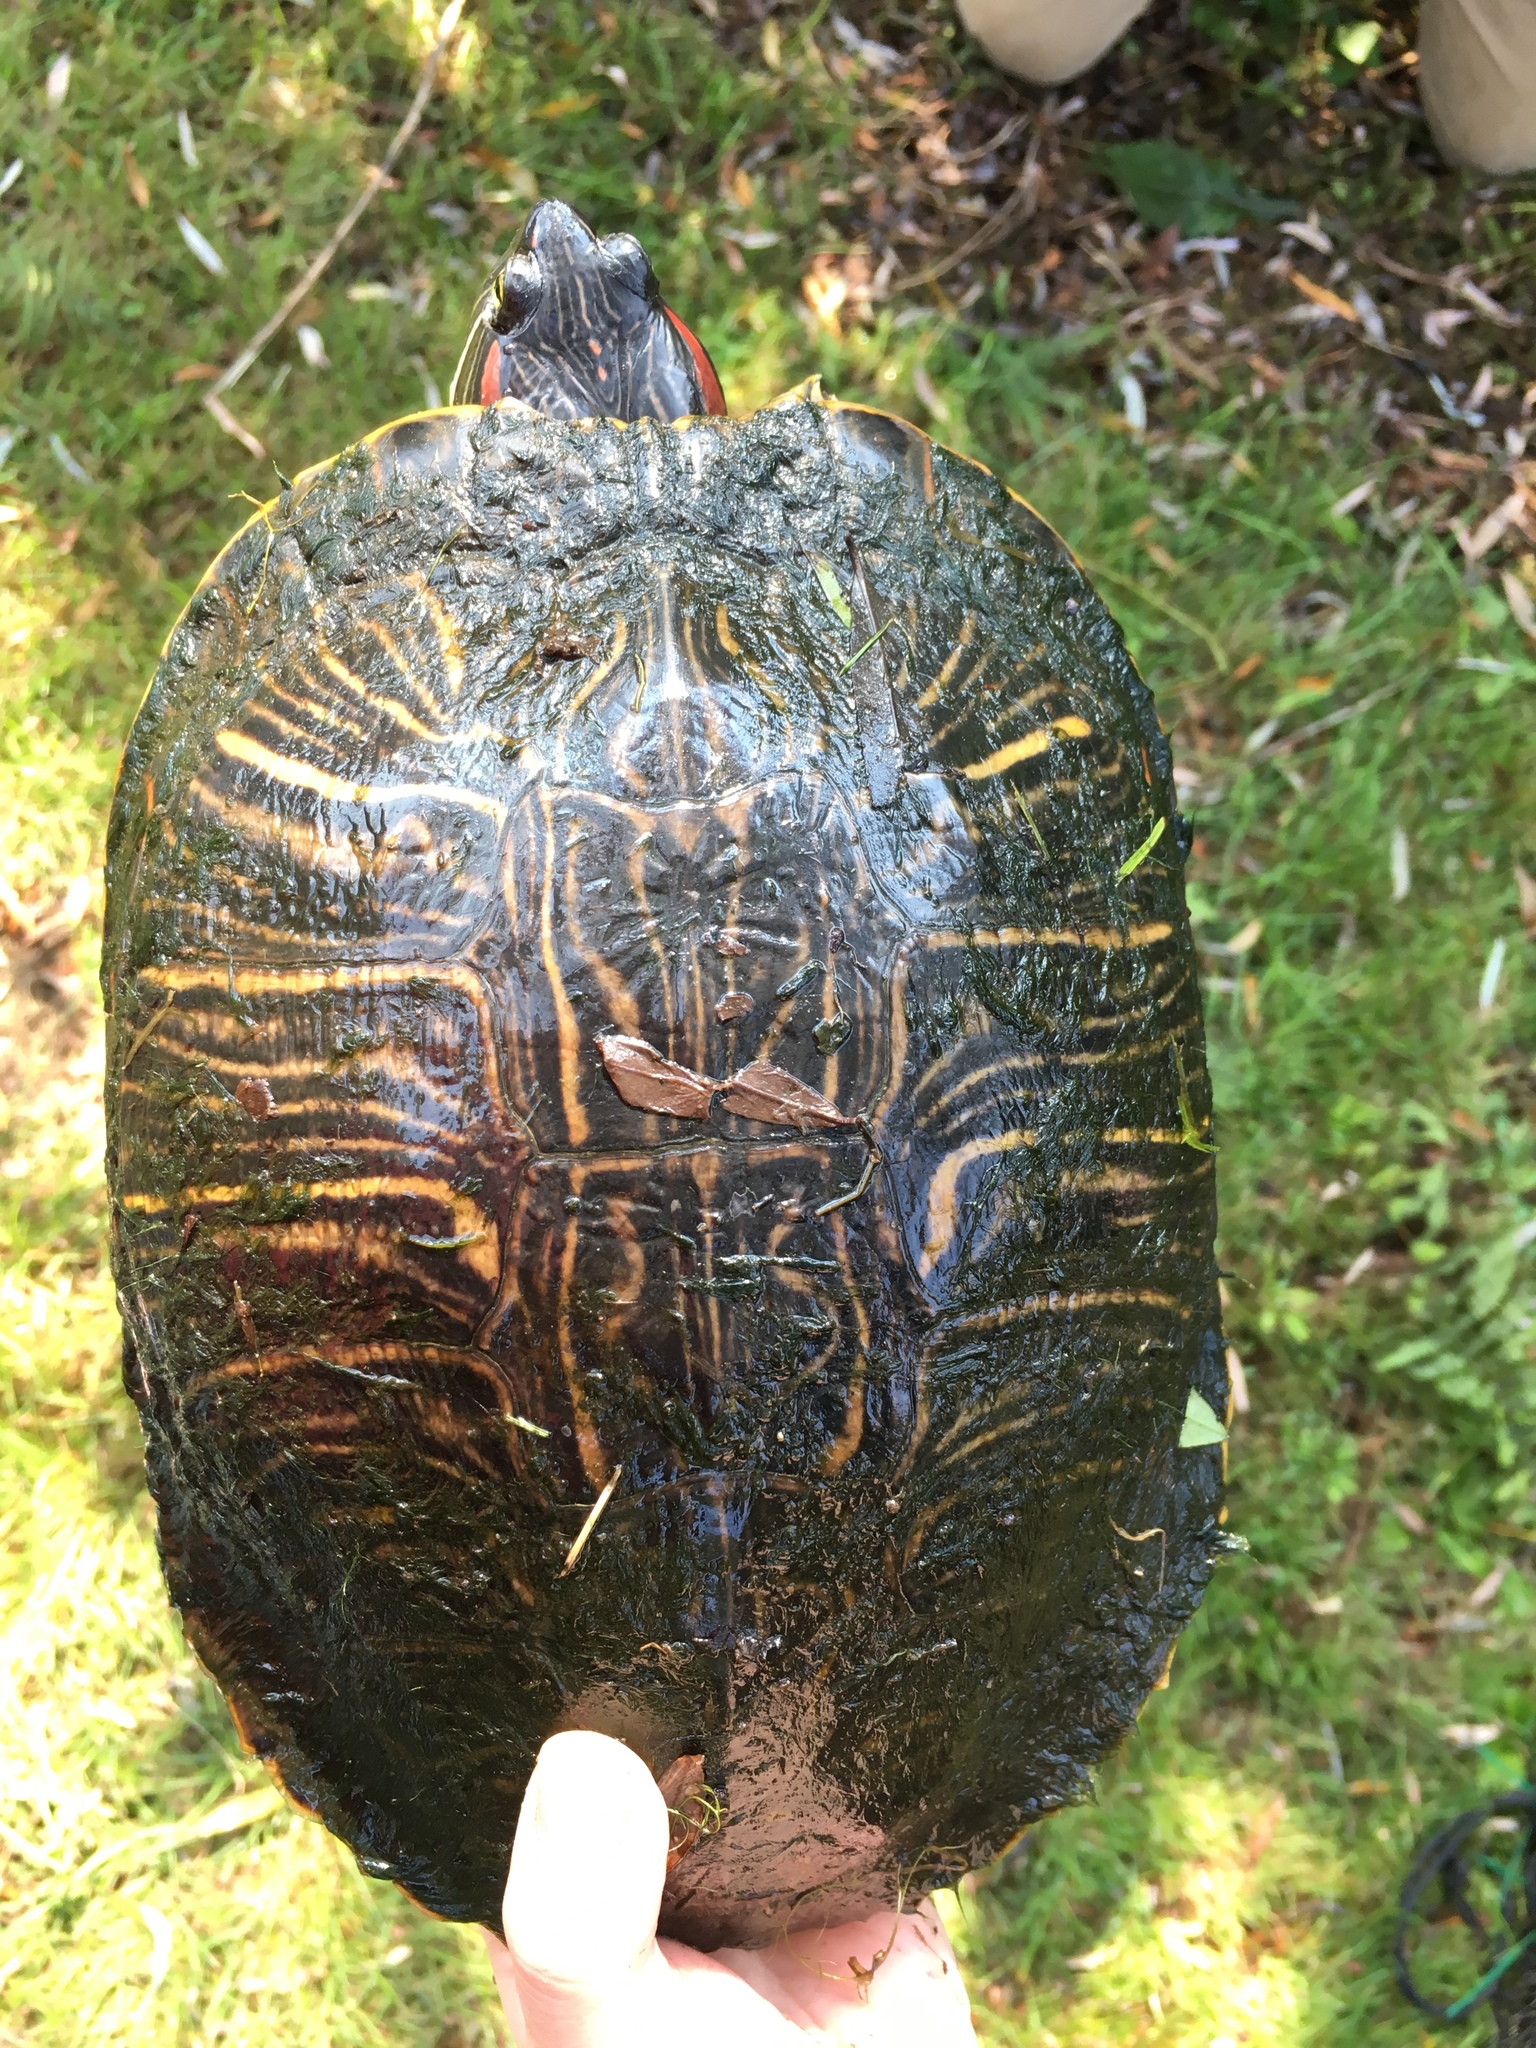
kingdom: Animalia
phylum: Chordata
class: Testudines
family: Emydidae
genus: Trachemys
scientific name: Trachemys scripta
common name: Slider
